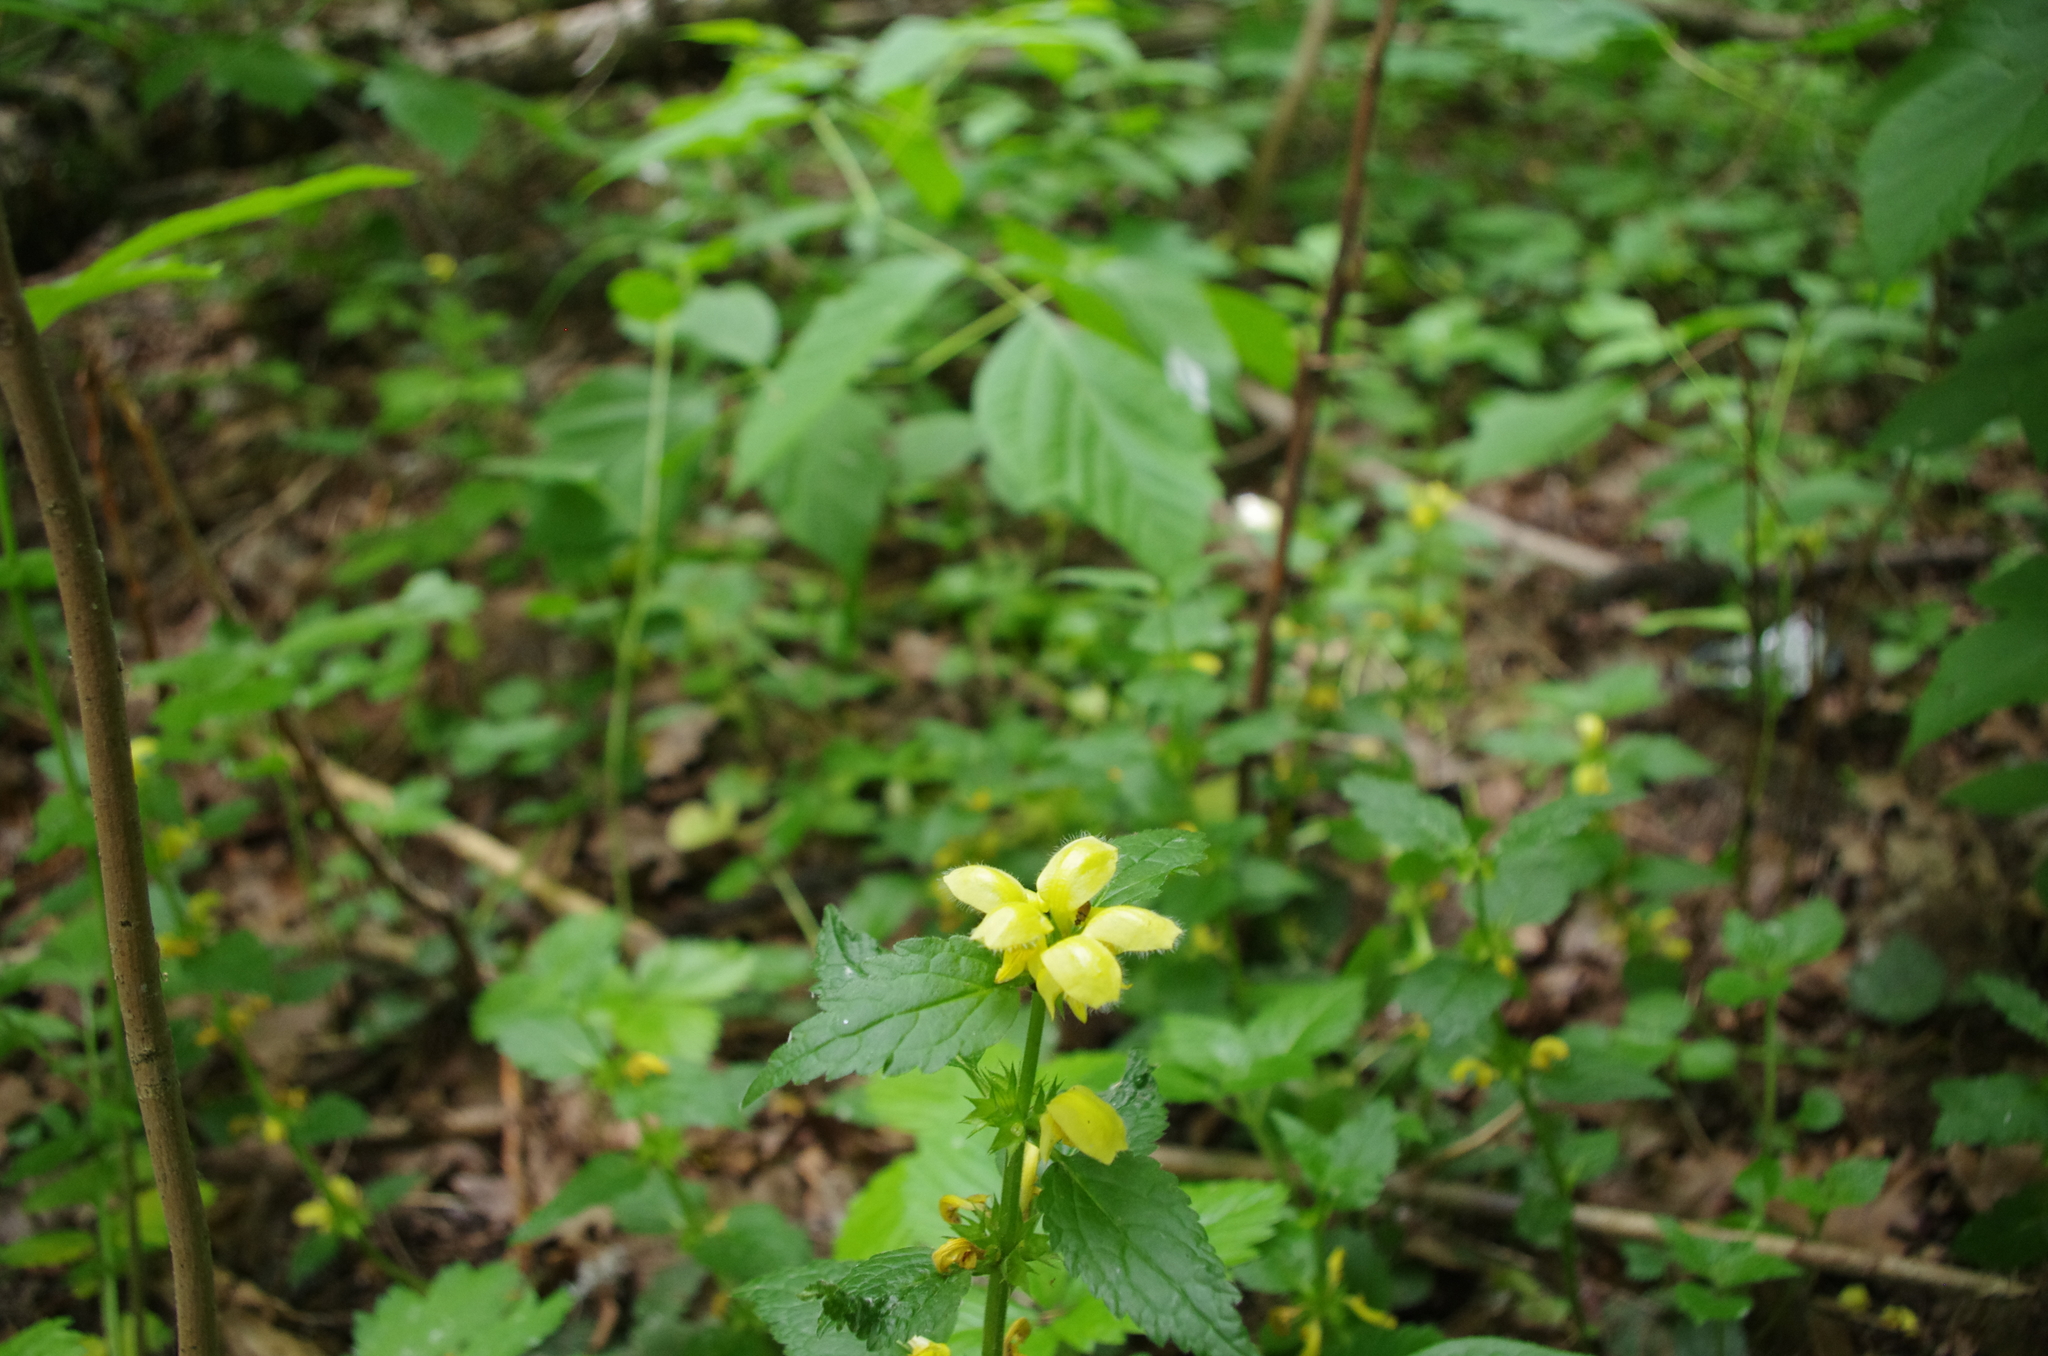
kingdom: Plantae
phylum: Tracheophyta
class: Magnoliopsida
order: Lamiales
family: Lamiaceae
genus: Lamium
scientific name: Lamium galeobdolon
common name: Yellow archangel
